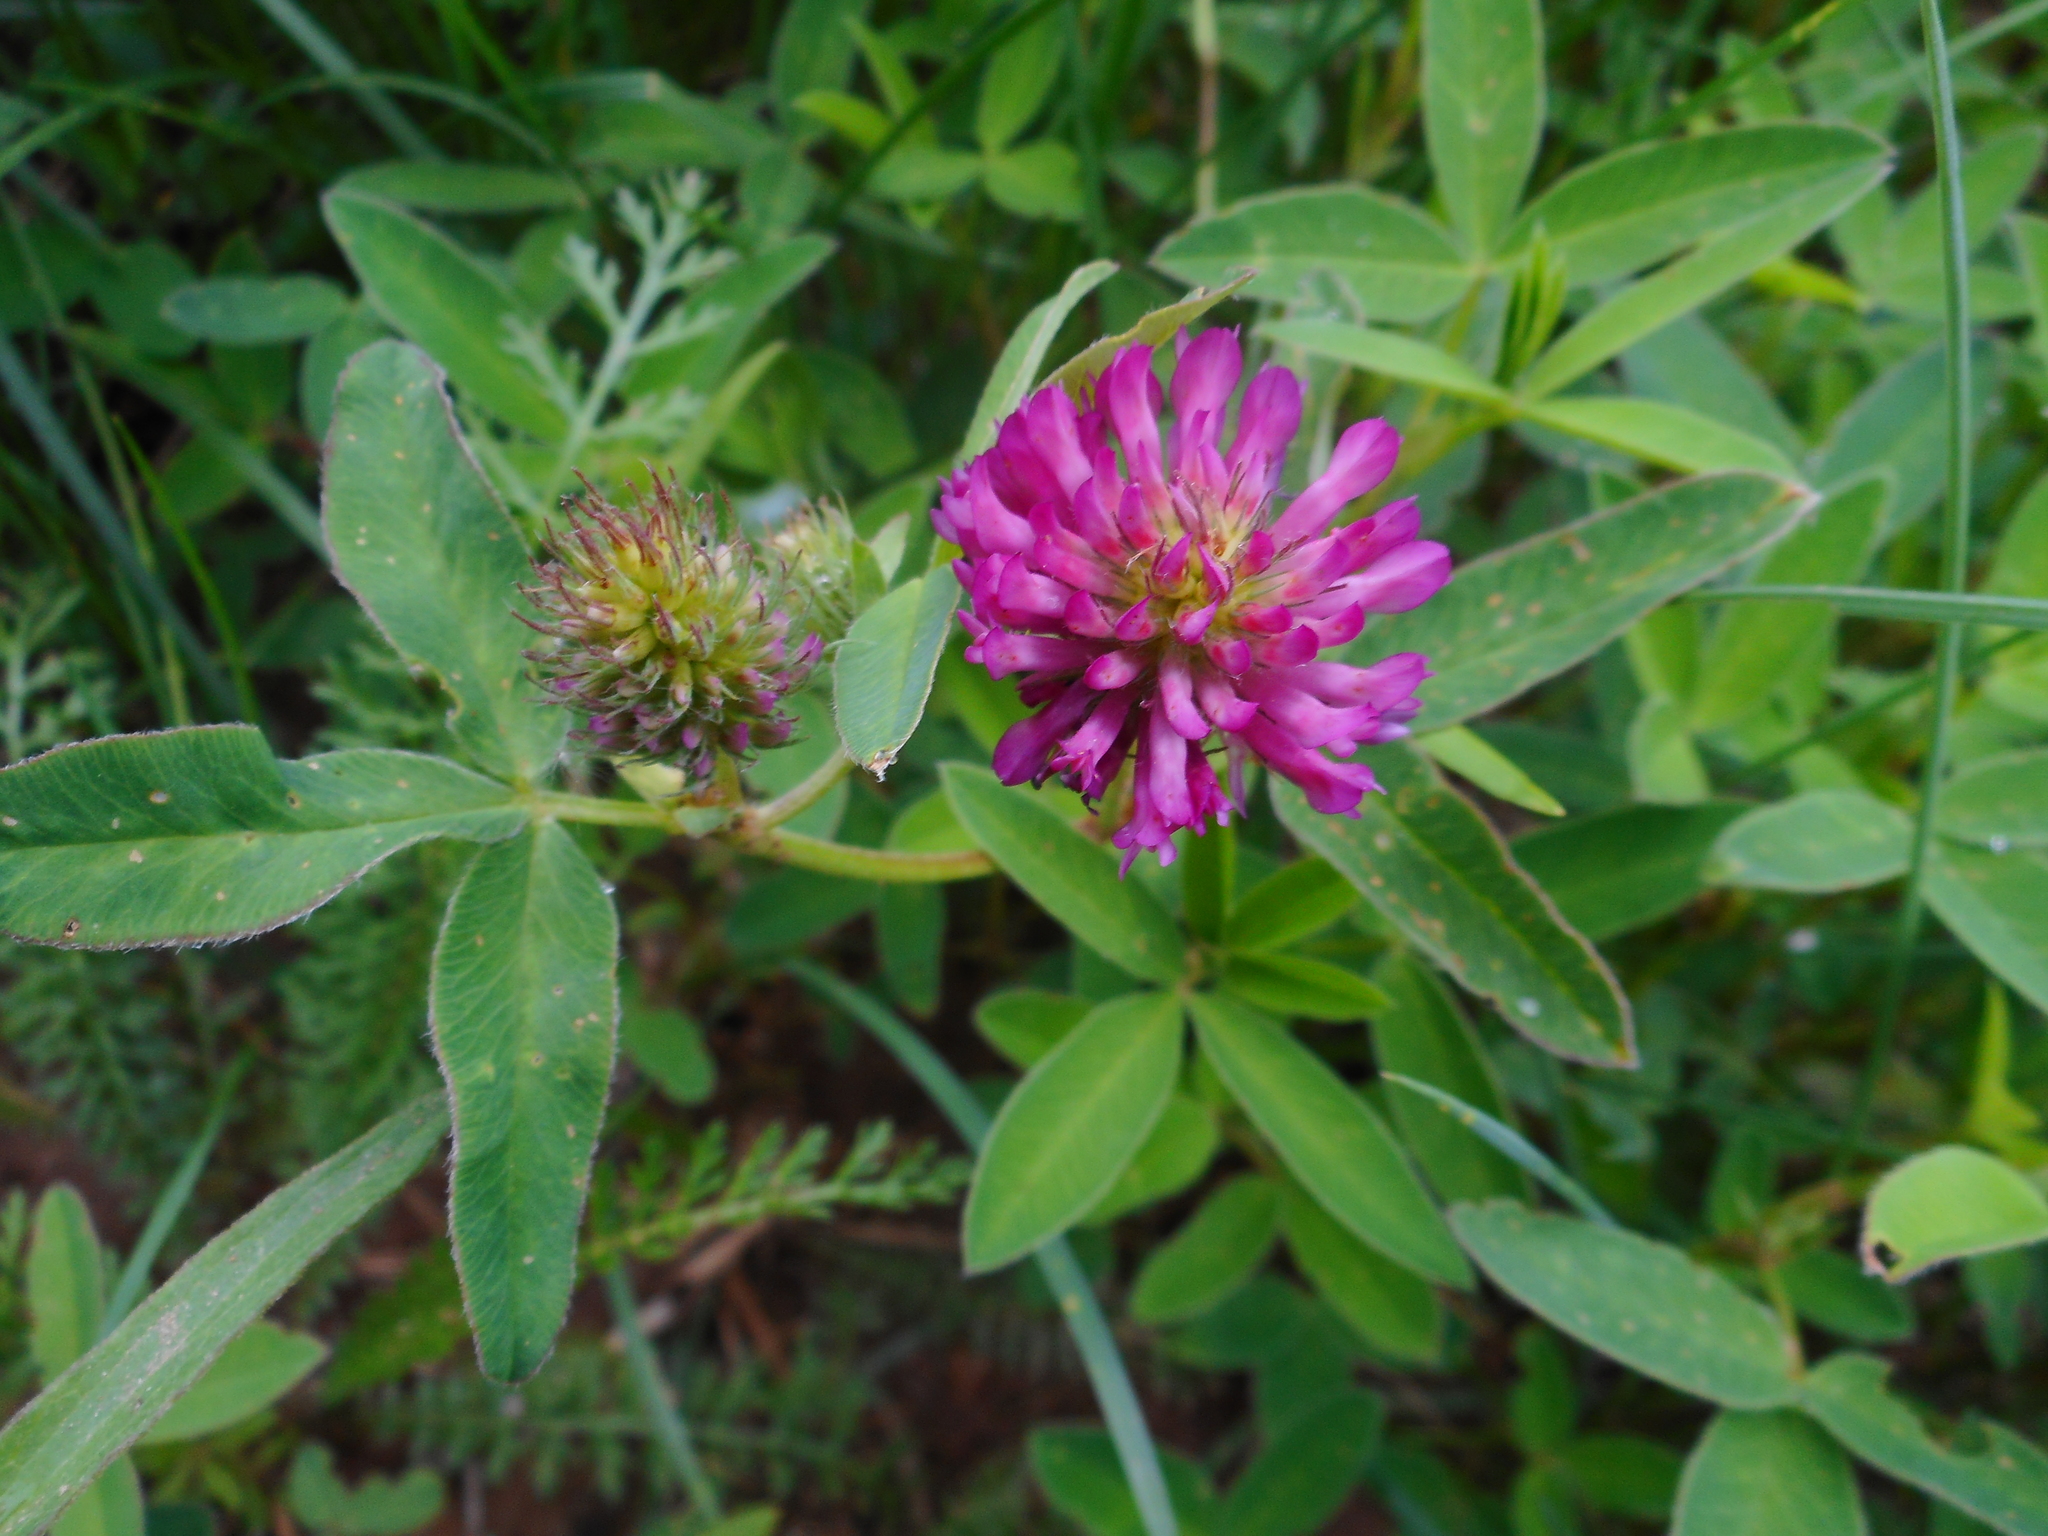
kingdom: Plantae
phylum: Tracheophyta
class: Magnoliopsida
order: Fabales
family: Fabaceae
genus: Trifolium
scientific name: Trifolium medium
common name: Zigzag clover
